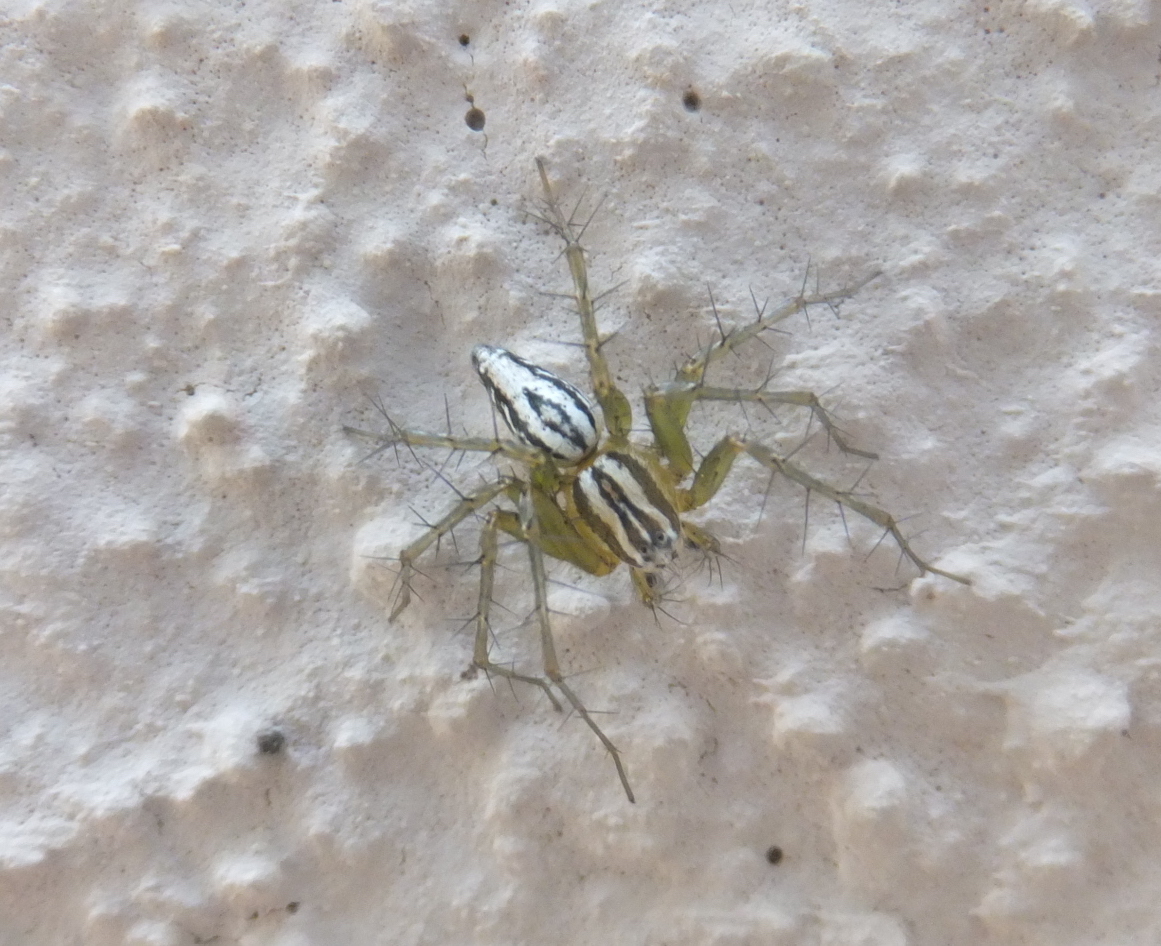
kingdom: Animalia
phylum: Arthropoda
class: Arachnida
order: Araneae
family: Oxyopidae
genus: Oxyopes
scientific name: Oxyopes lineatus
